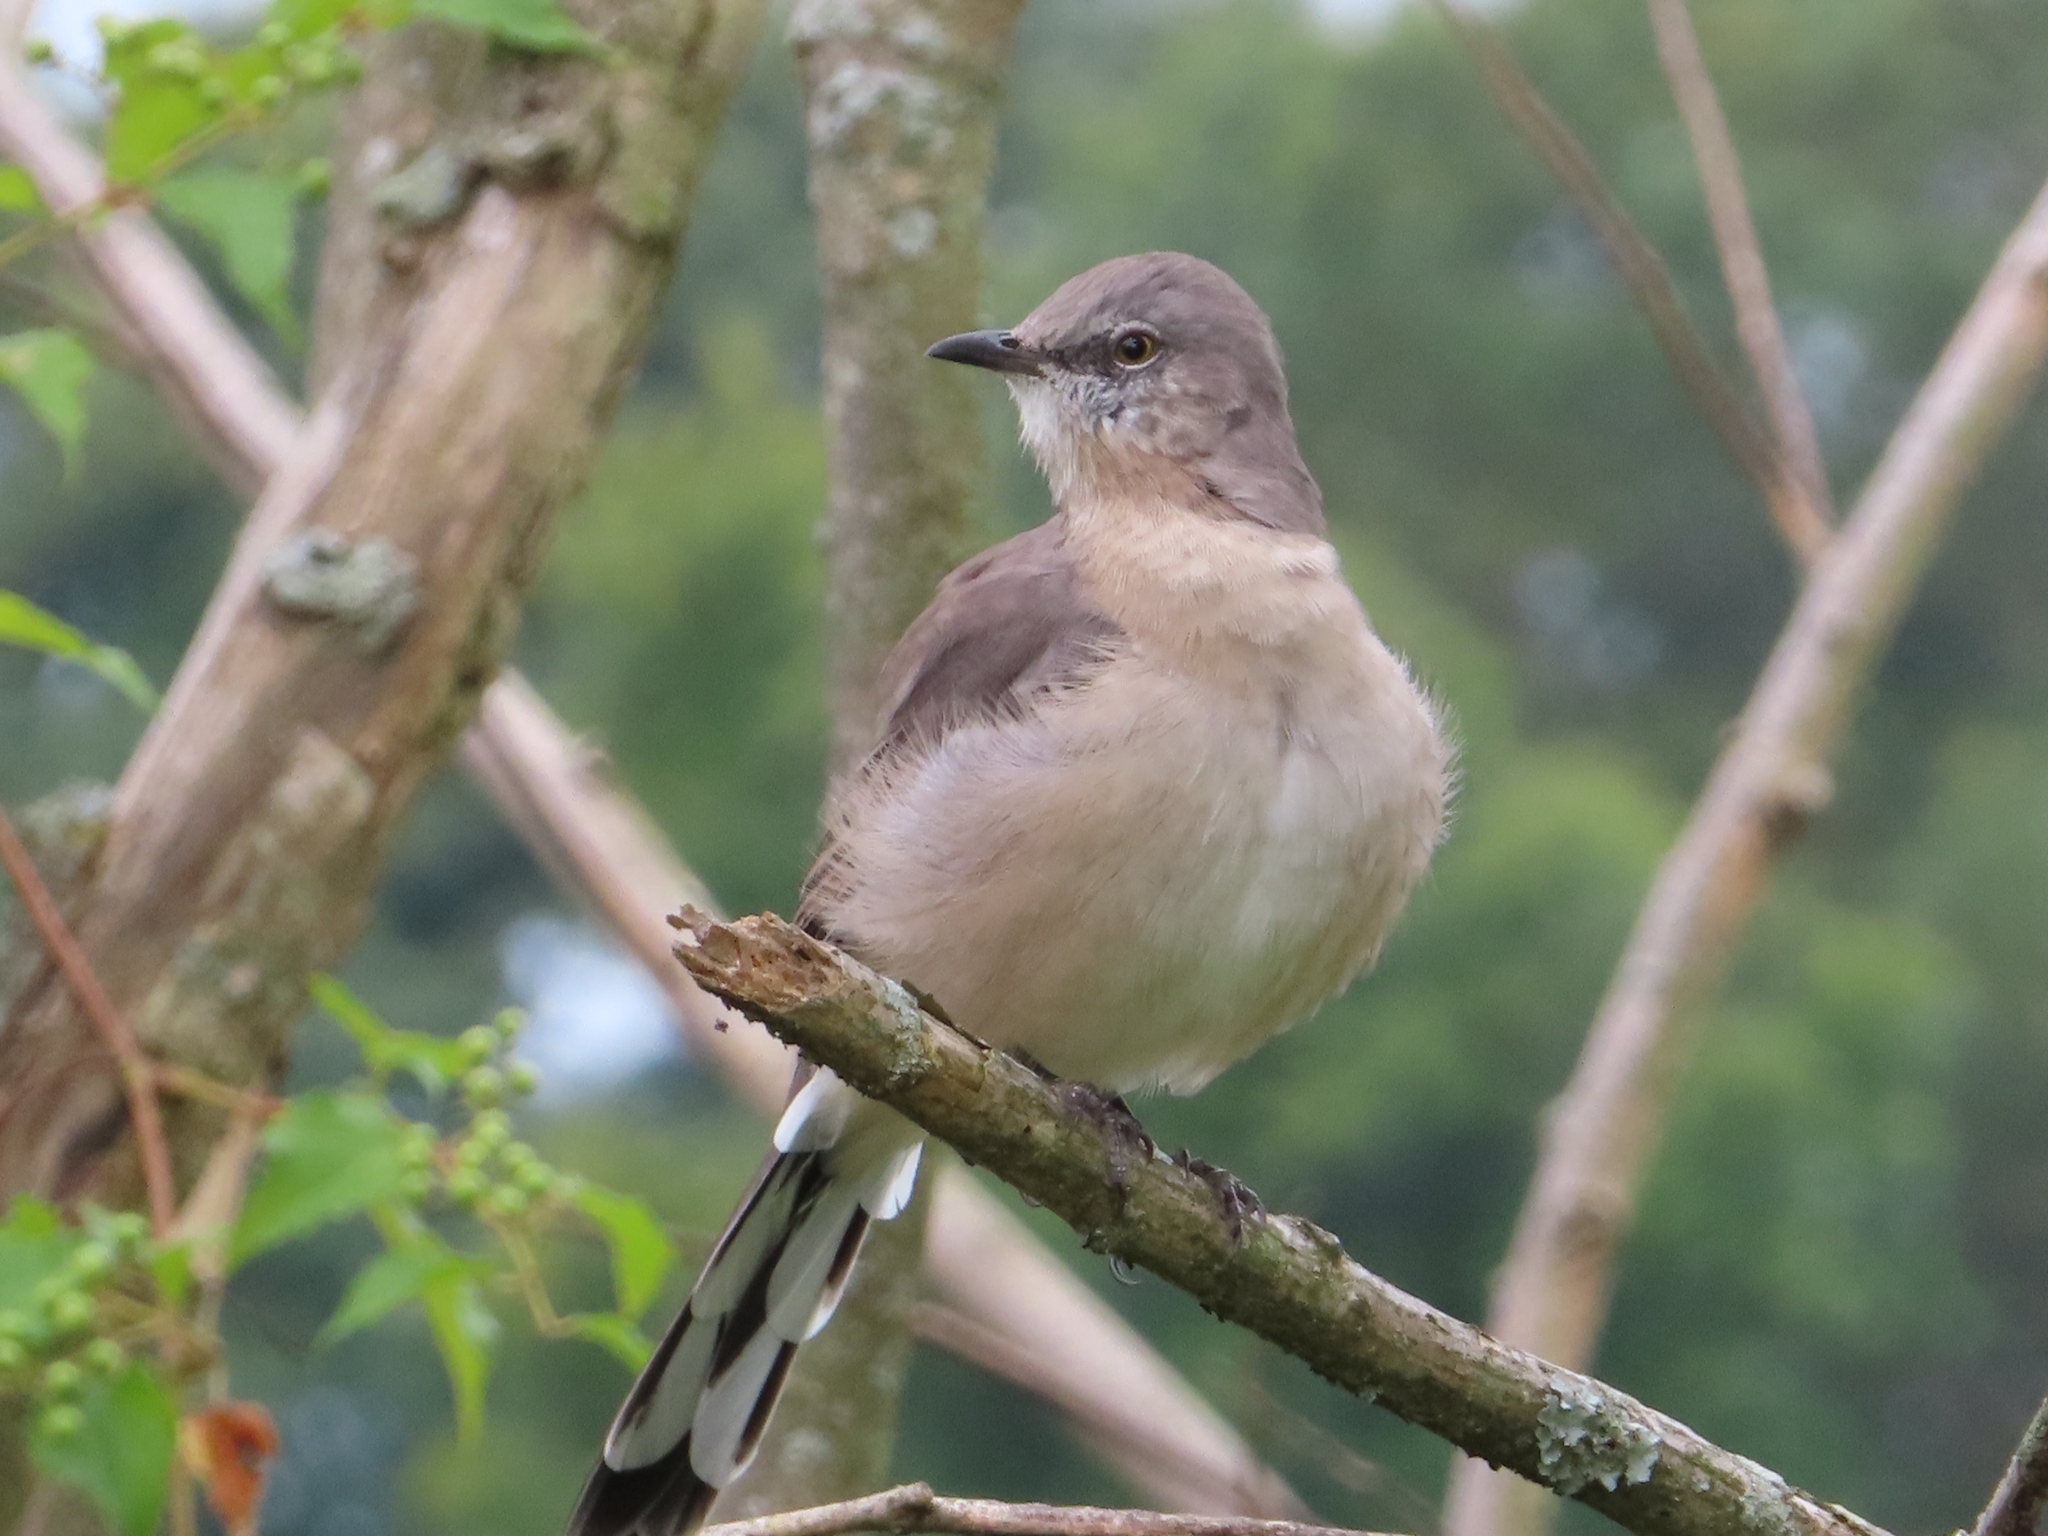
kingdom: Animalia
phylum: Chordata
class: Aves
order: Passeriformes
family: Mimidae
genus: Mimus
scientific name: Mimus polyglottos
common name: Northern mockingbird
